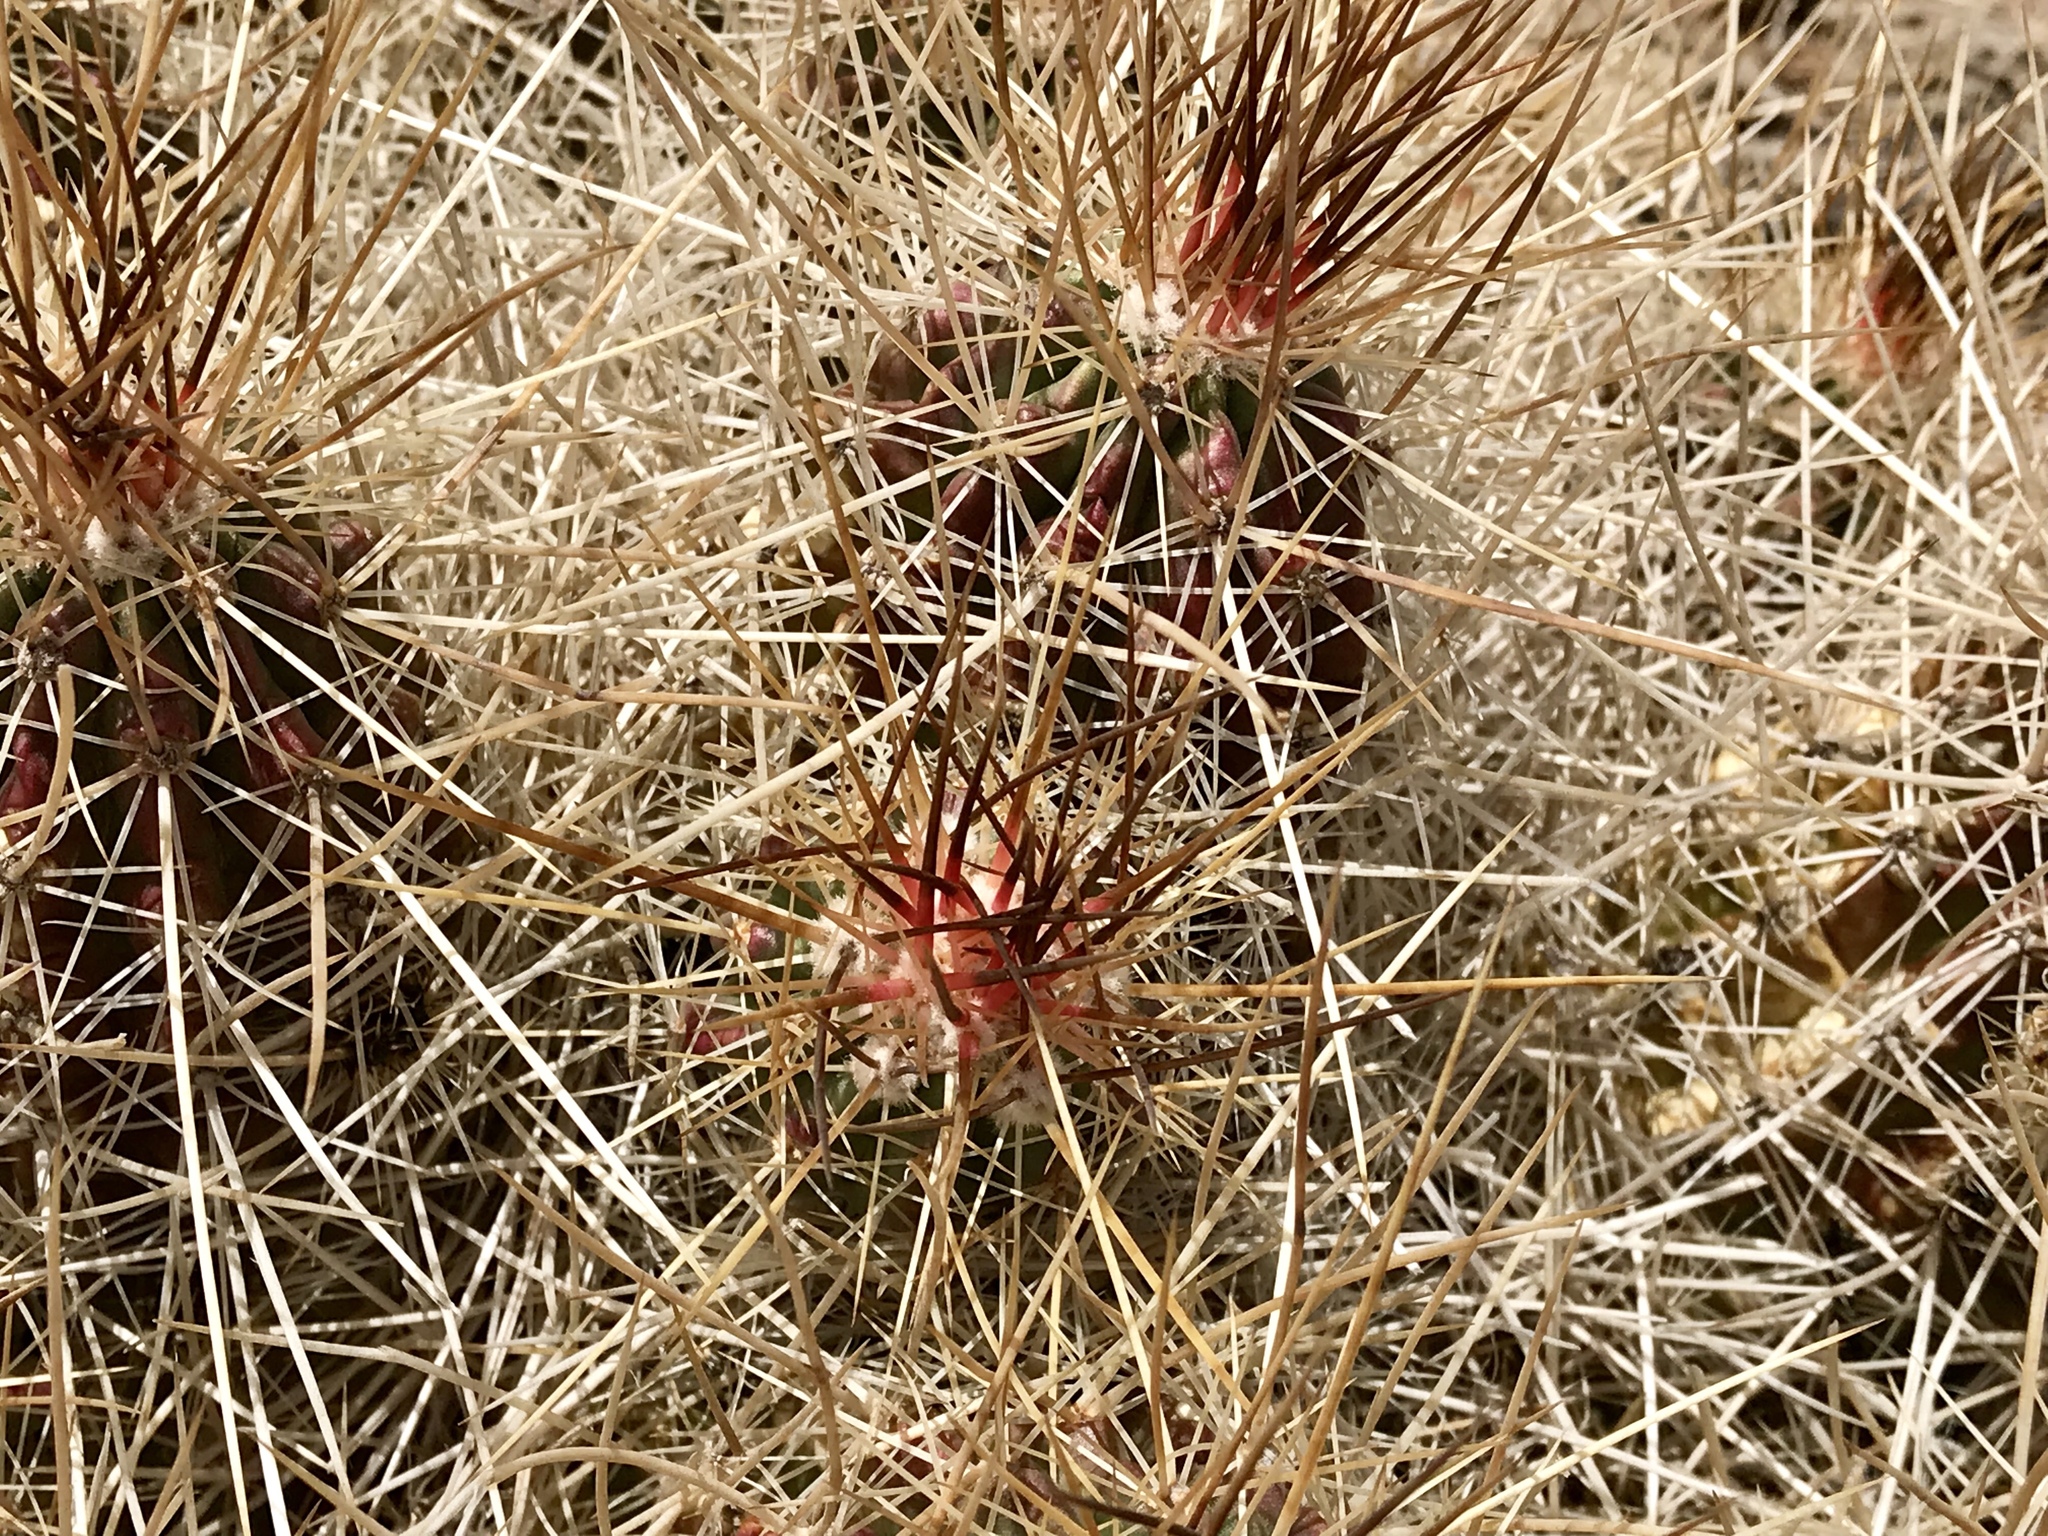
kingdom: Plantae
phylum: Tracheophyta
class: Magnoliopsida
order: Caryophyllales
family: Cactaceae
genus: Echinocereus
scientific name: Echinocereus stramineus
